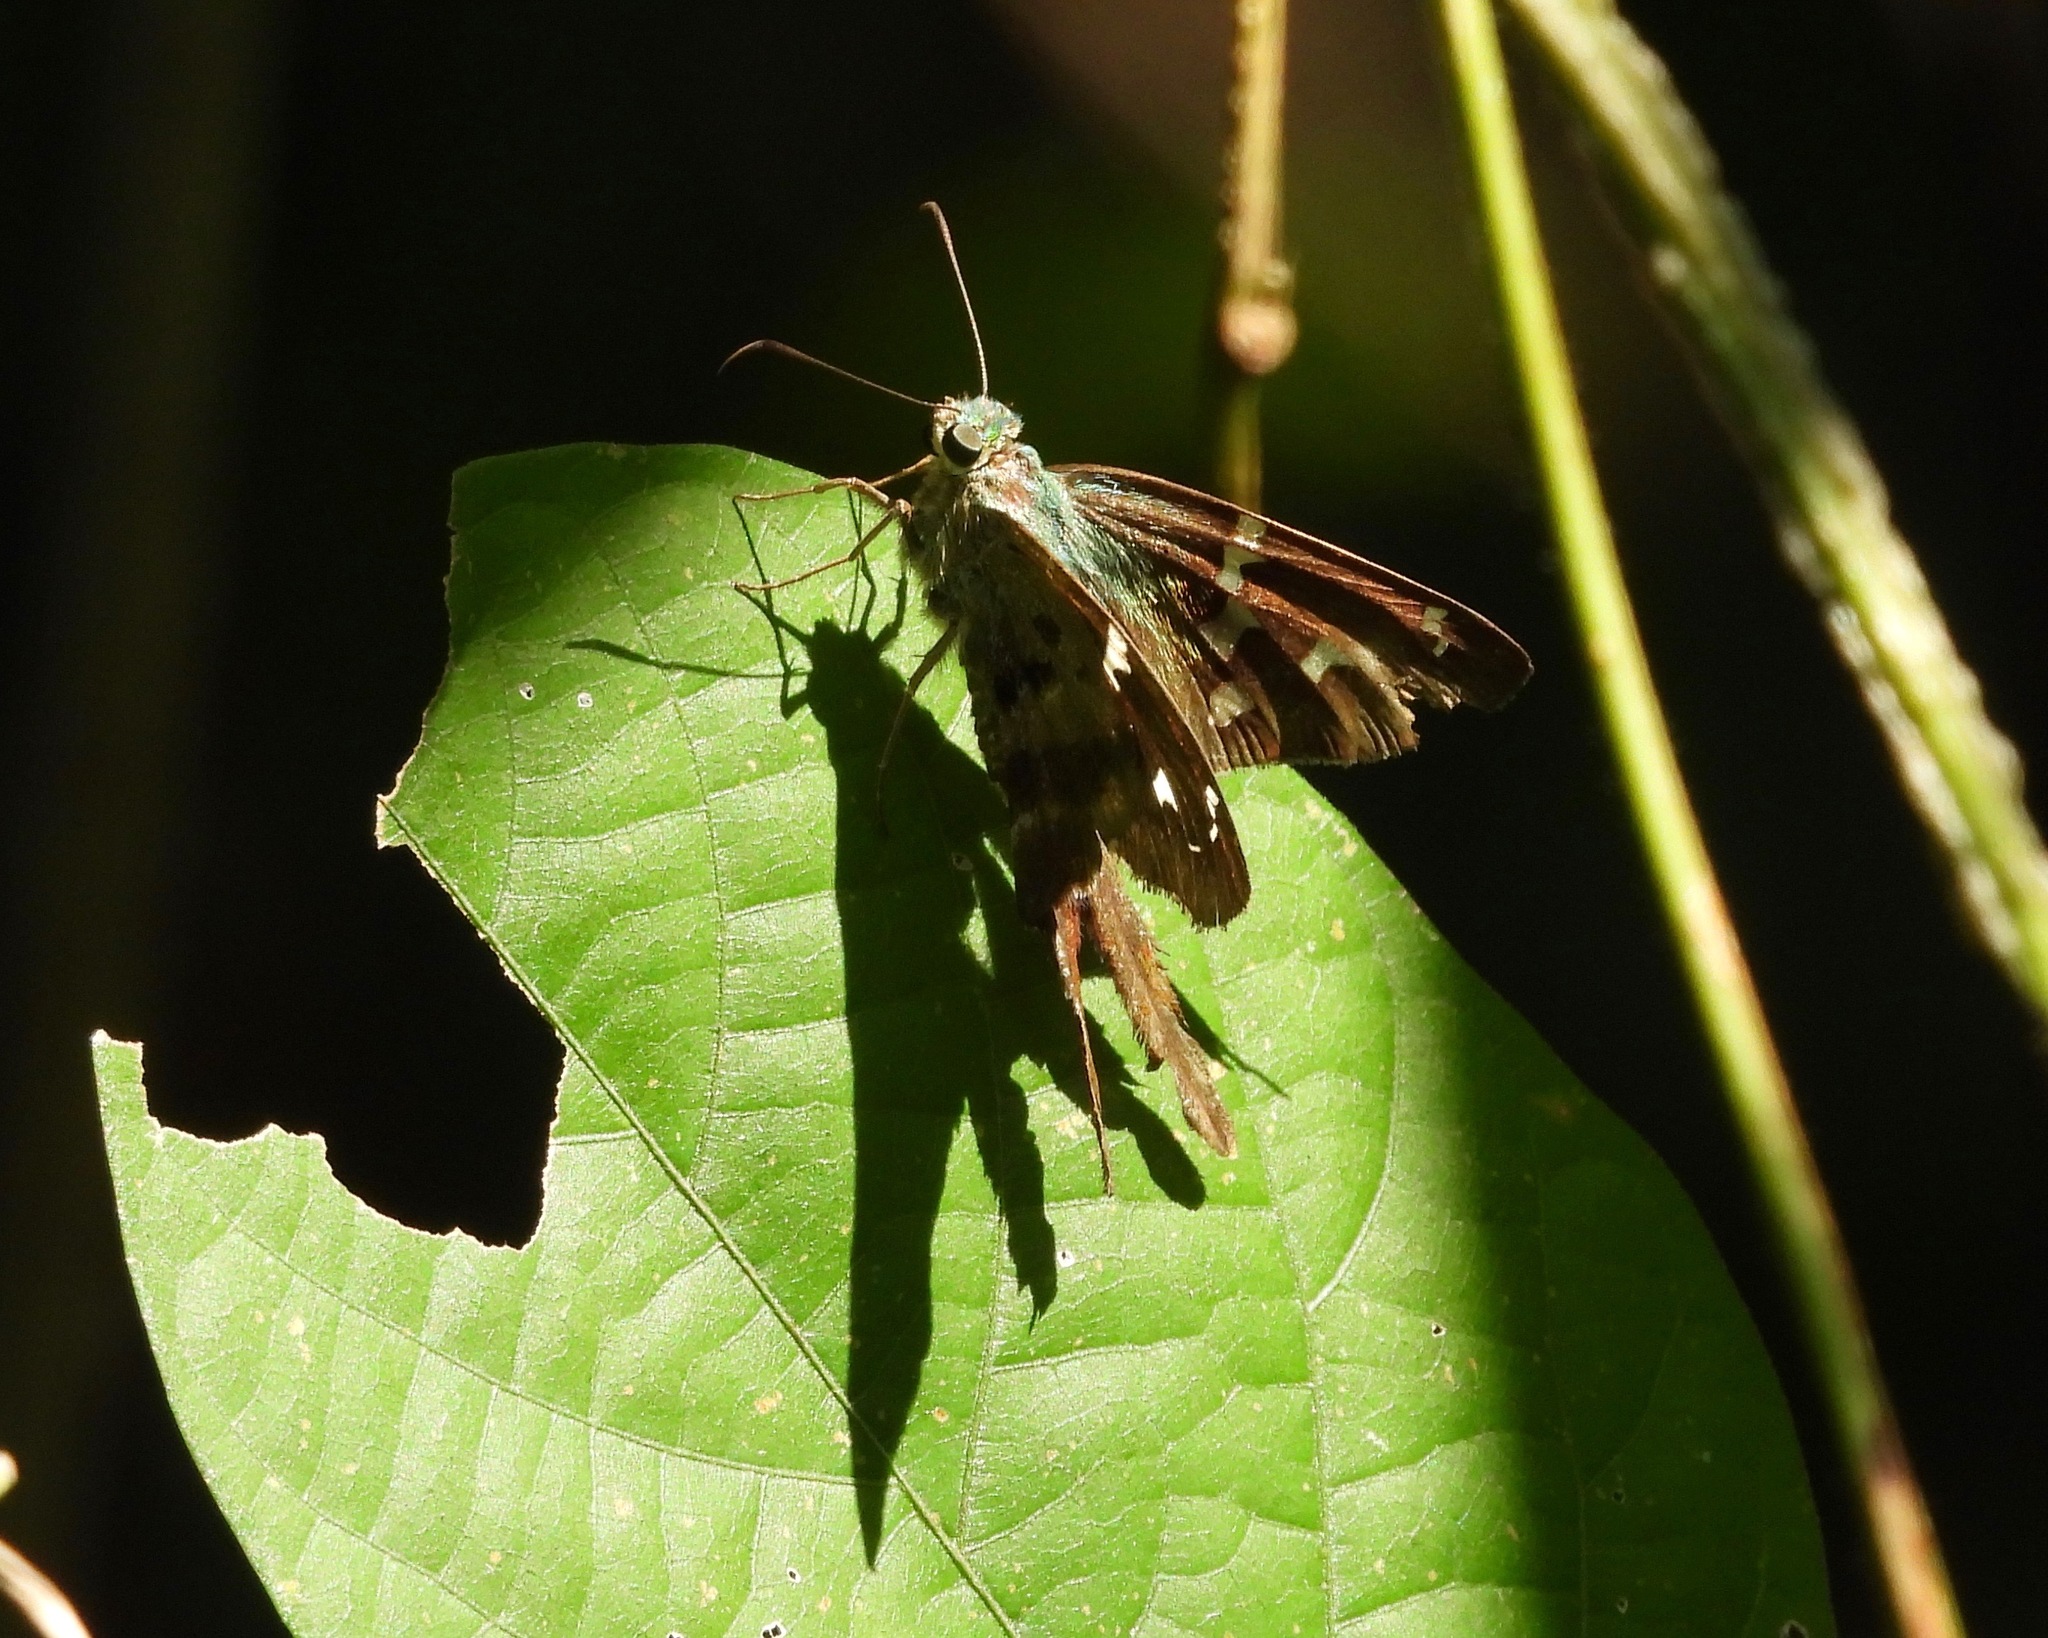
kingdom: Animalia
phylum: Arthropoda
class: Insecta
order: Lepidoptera
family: Hesperiidae
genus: Urbanus
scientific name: Urbanus proteus
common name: Long-tailed skipper
